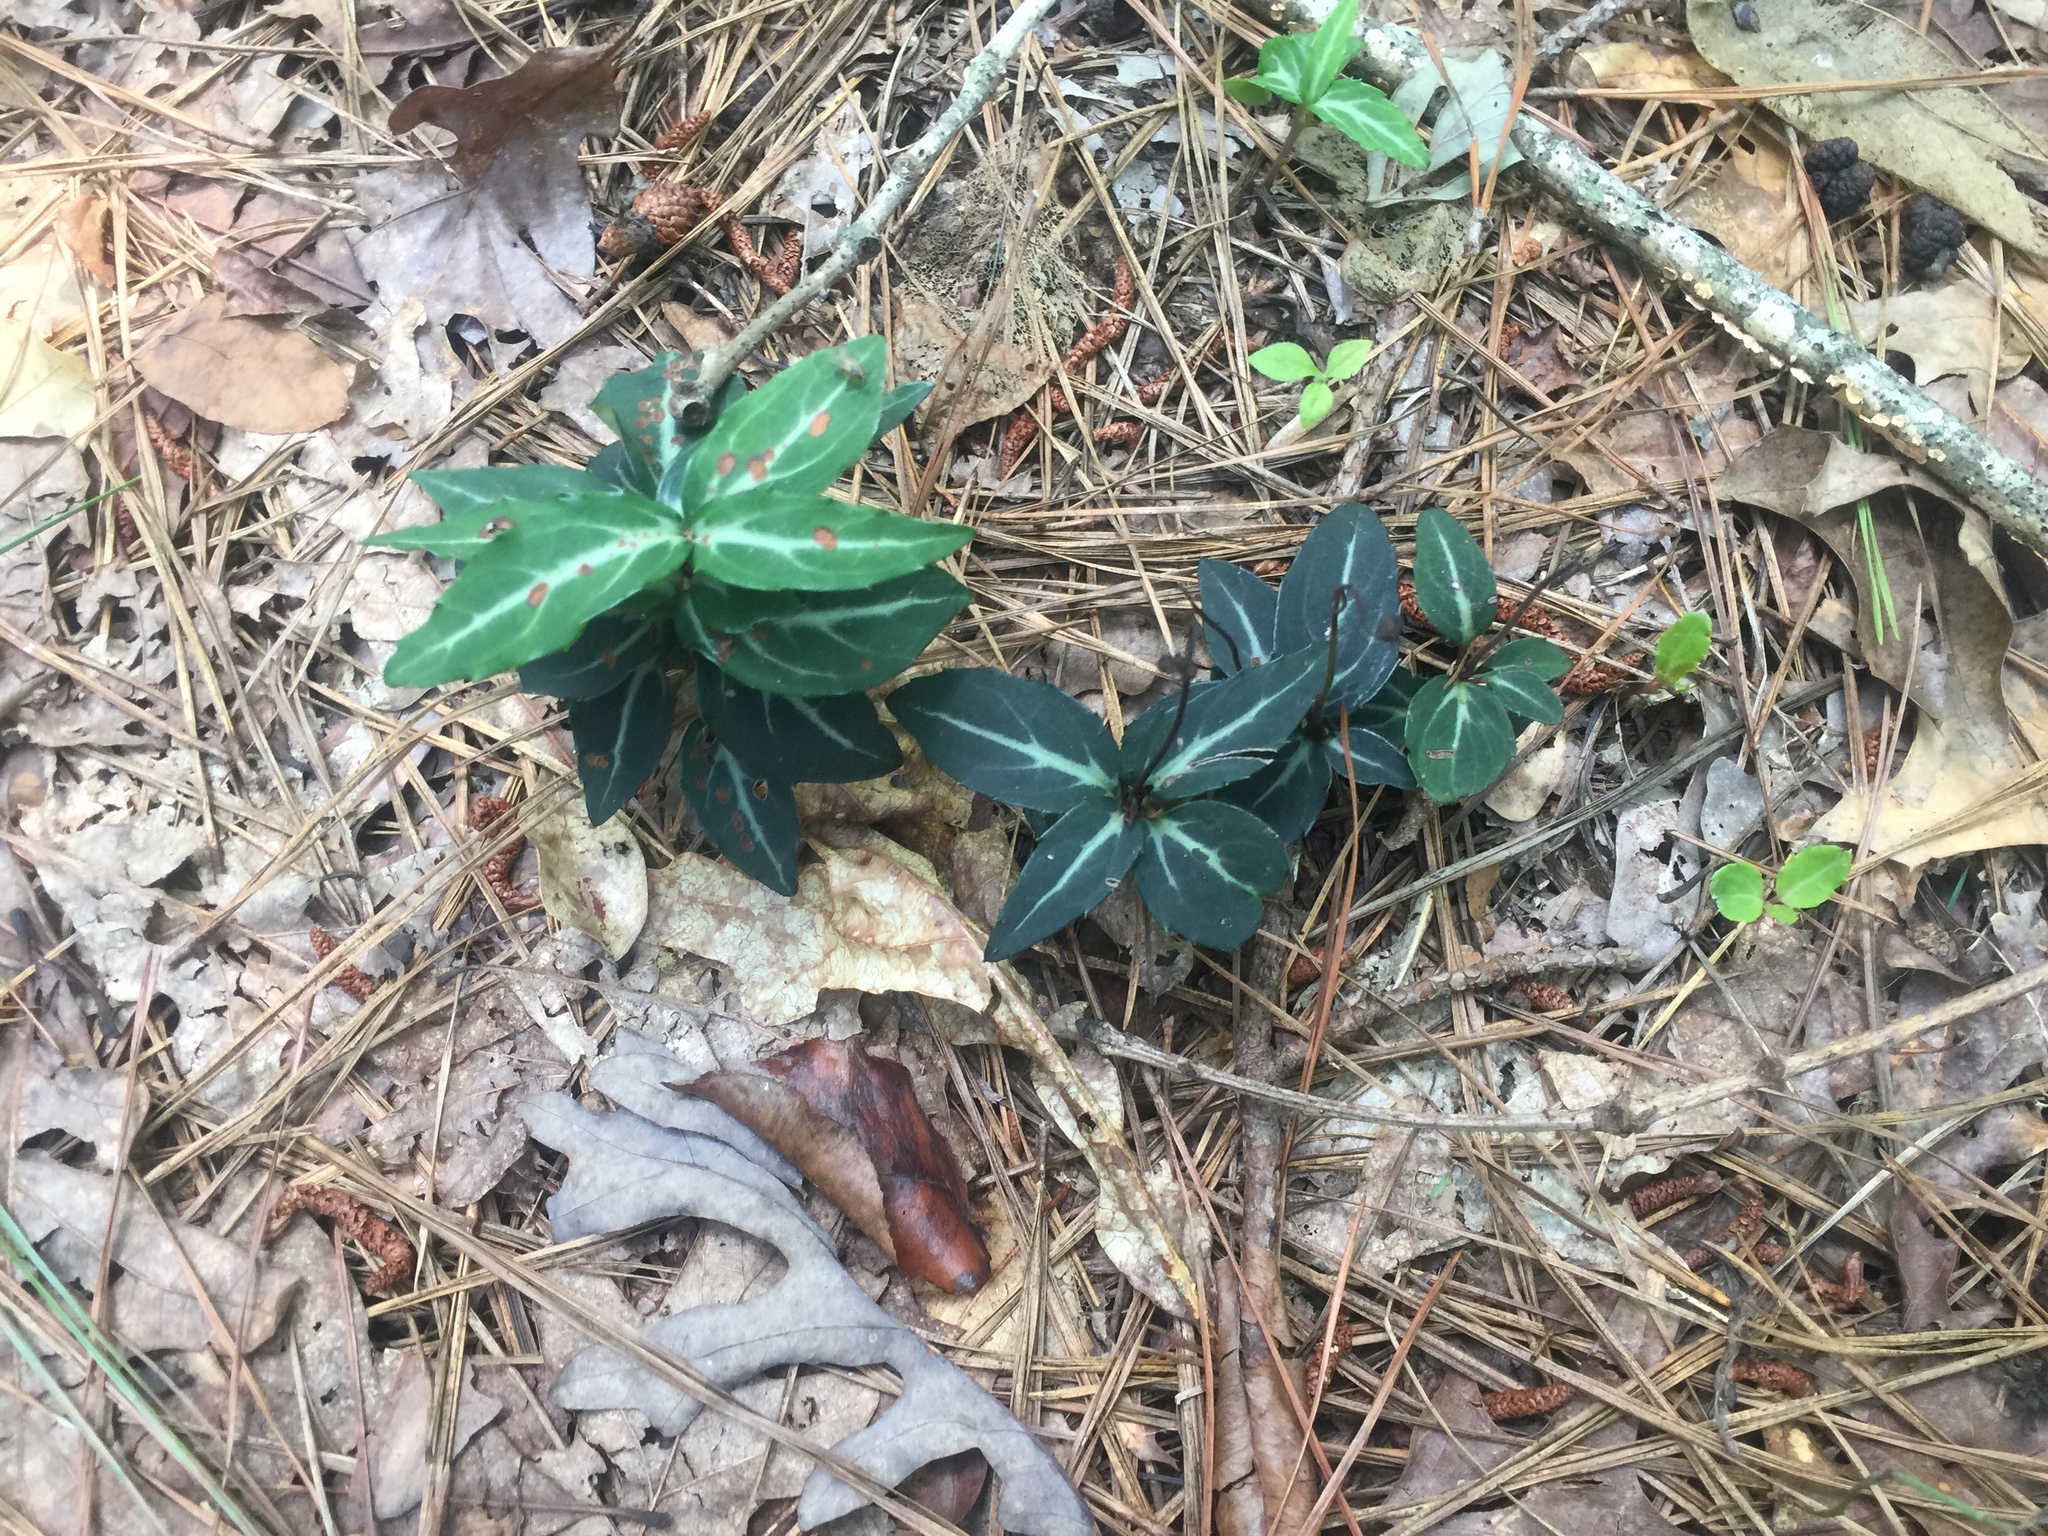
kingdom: Plantae
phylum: Tracheophyta
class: Magnoliopsida
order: Ericales
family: Ericaceae
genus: Chimaphila
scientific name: Chimaphila maculata
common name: Spotted pipsissewa
